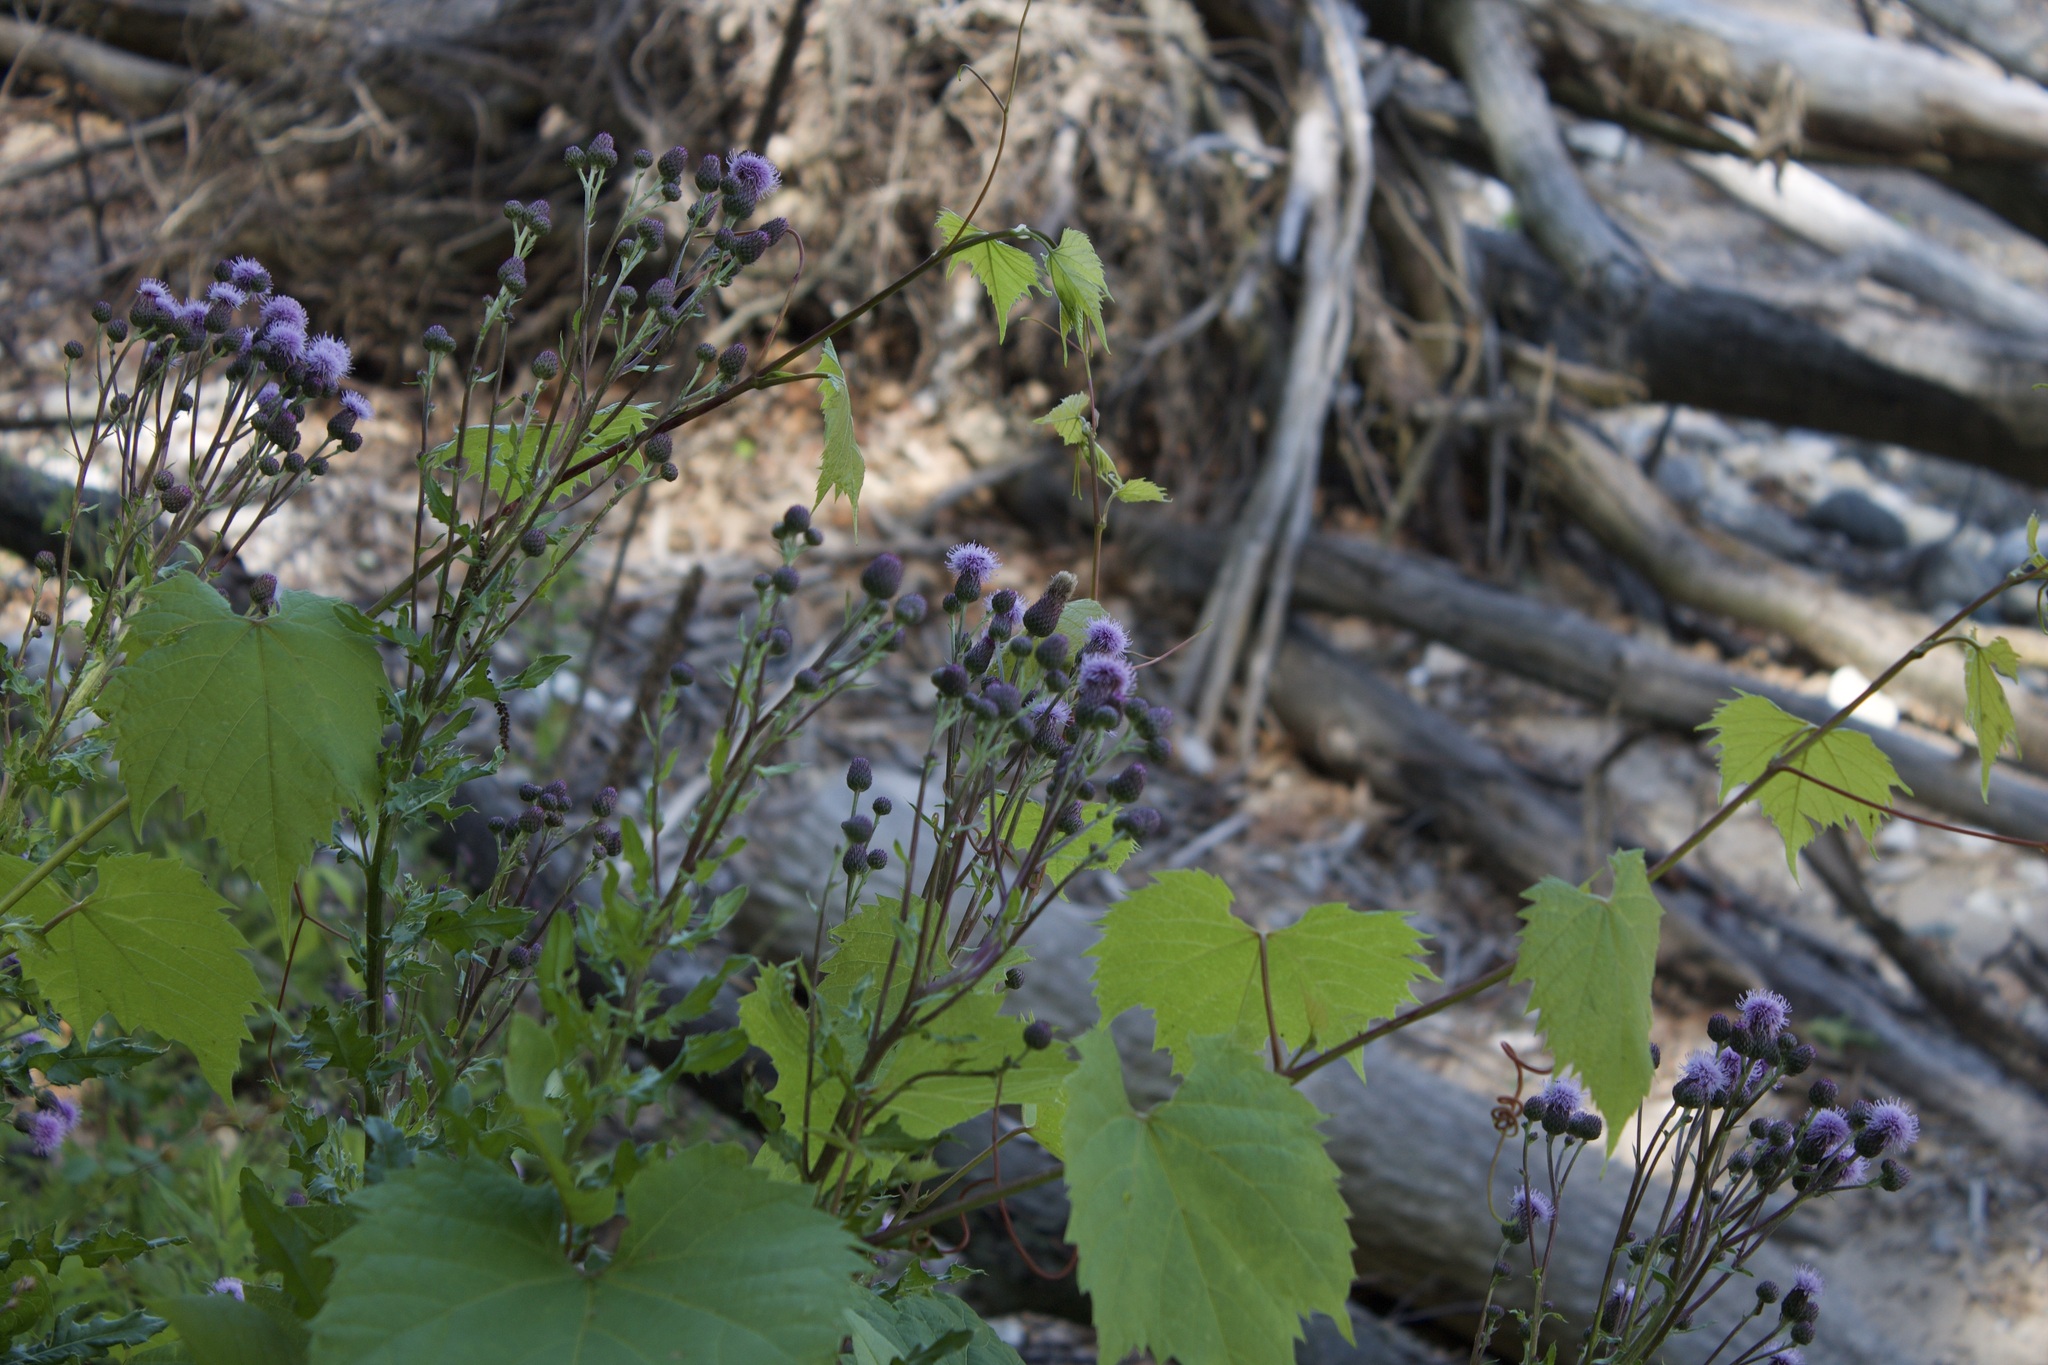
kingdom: Plantae
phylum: Tracheophyta
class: Magnoliopsida
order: Asterales
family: Asteraceae
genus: Cirsium
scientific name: Cirsium arvense
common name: Creeping thistle
